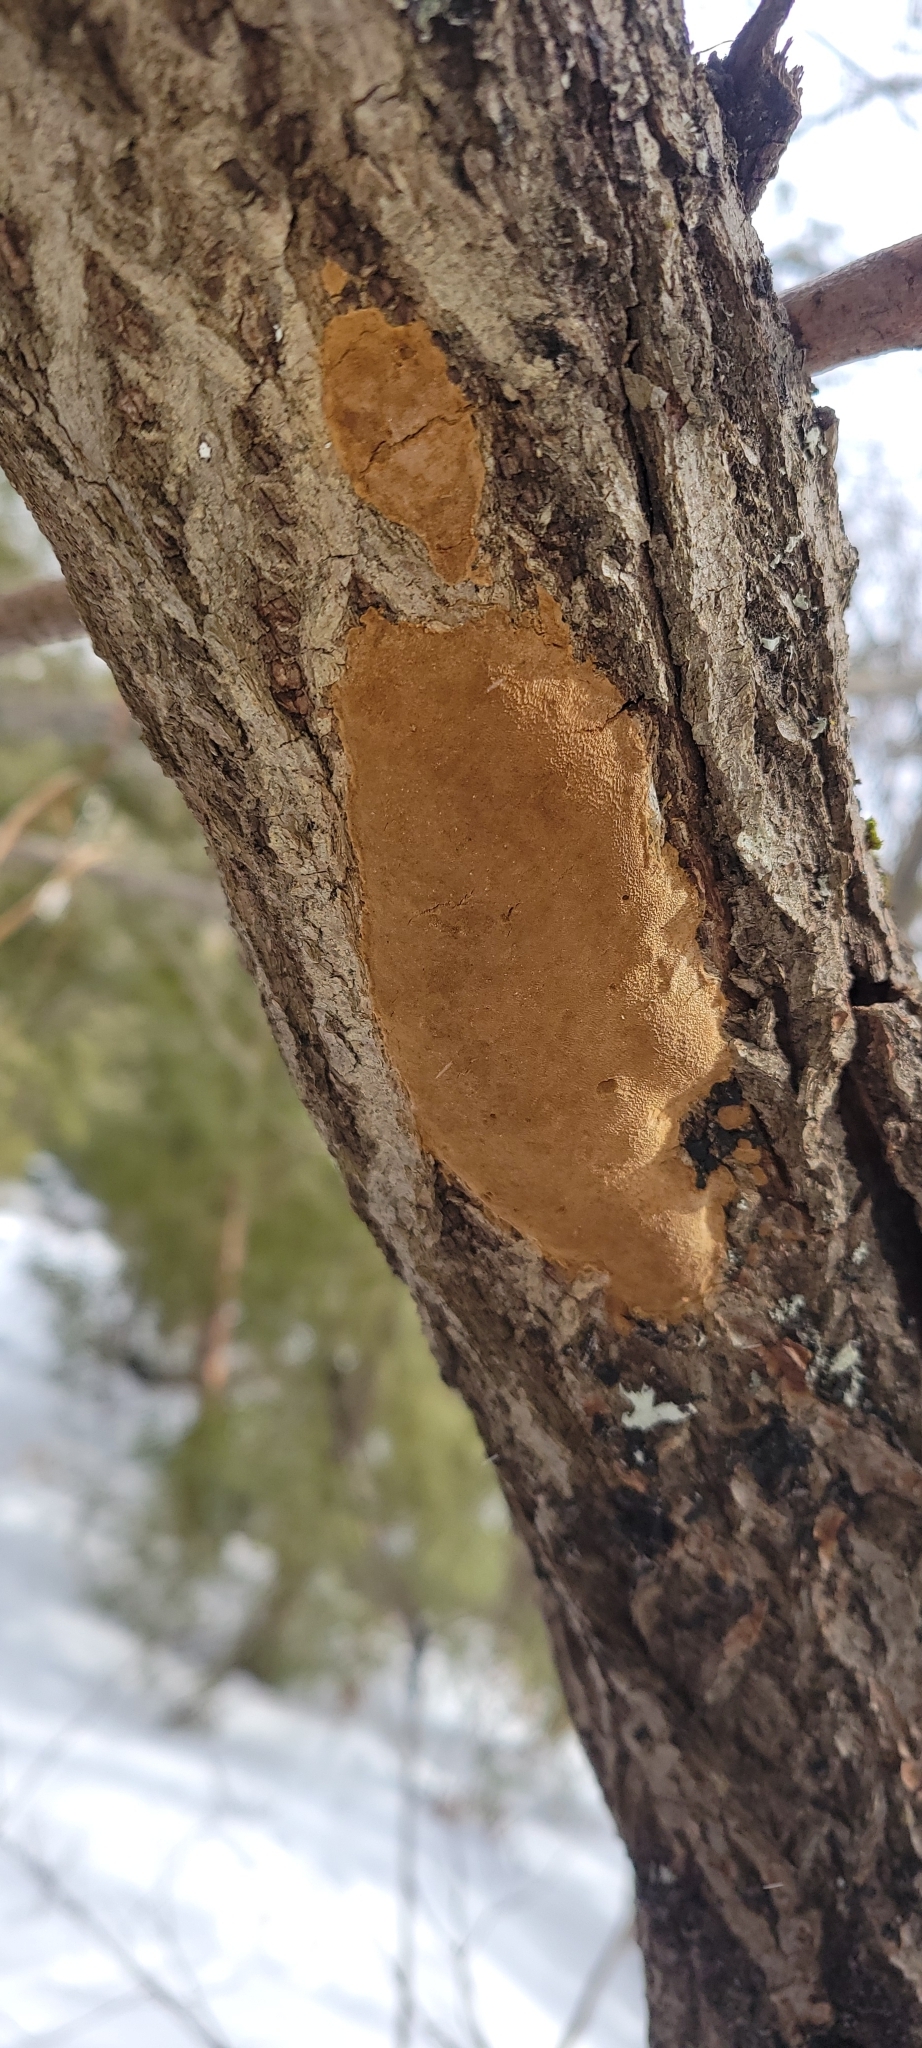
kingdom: Fungi
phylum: Basidiomycota
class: Agaricomycetes
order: Hymenochaetales
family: Hymenochaetaceae
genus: Fomitiporia
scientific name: Fomitiporia punctata
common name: Elbowpatch crust
